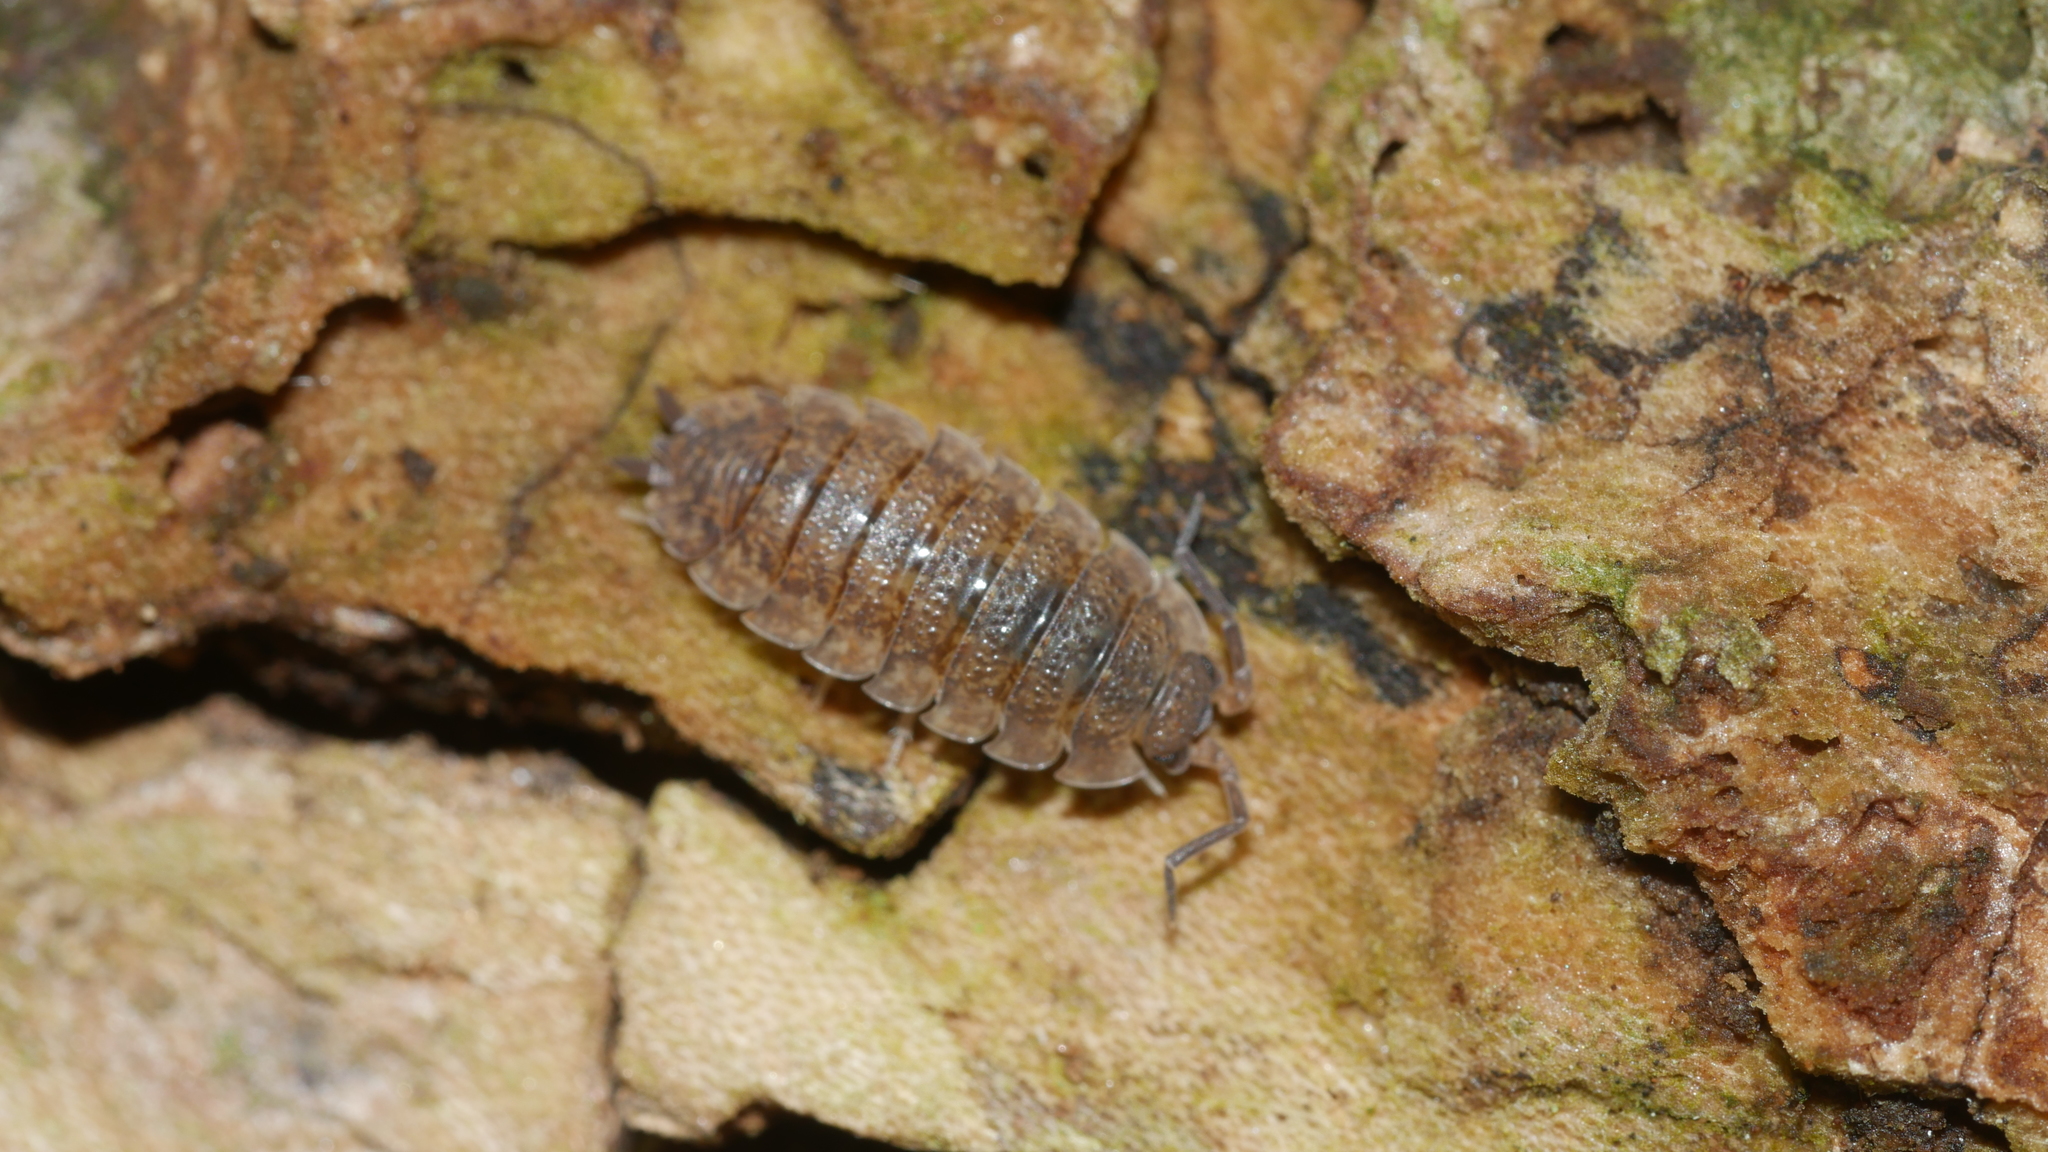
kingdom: Animalia
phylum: Arthropoda
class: Malacostraca
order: Isopoda
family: Porcellionidae
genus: Porcellio
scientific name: Porcellio scaber
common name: Common rough woodlouse
